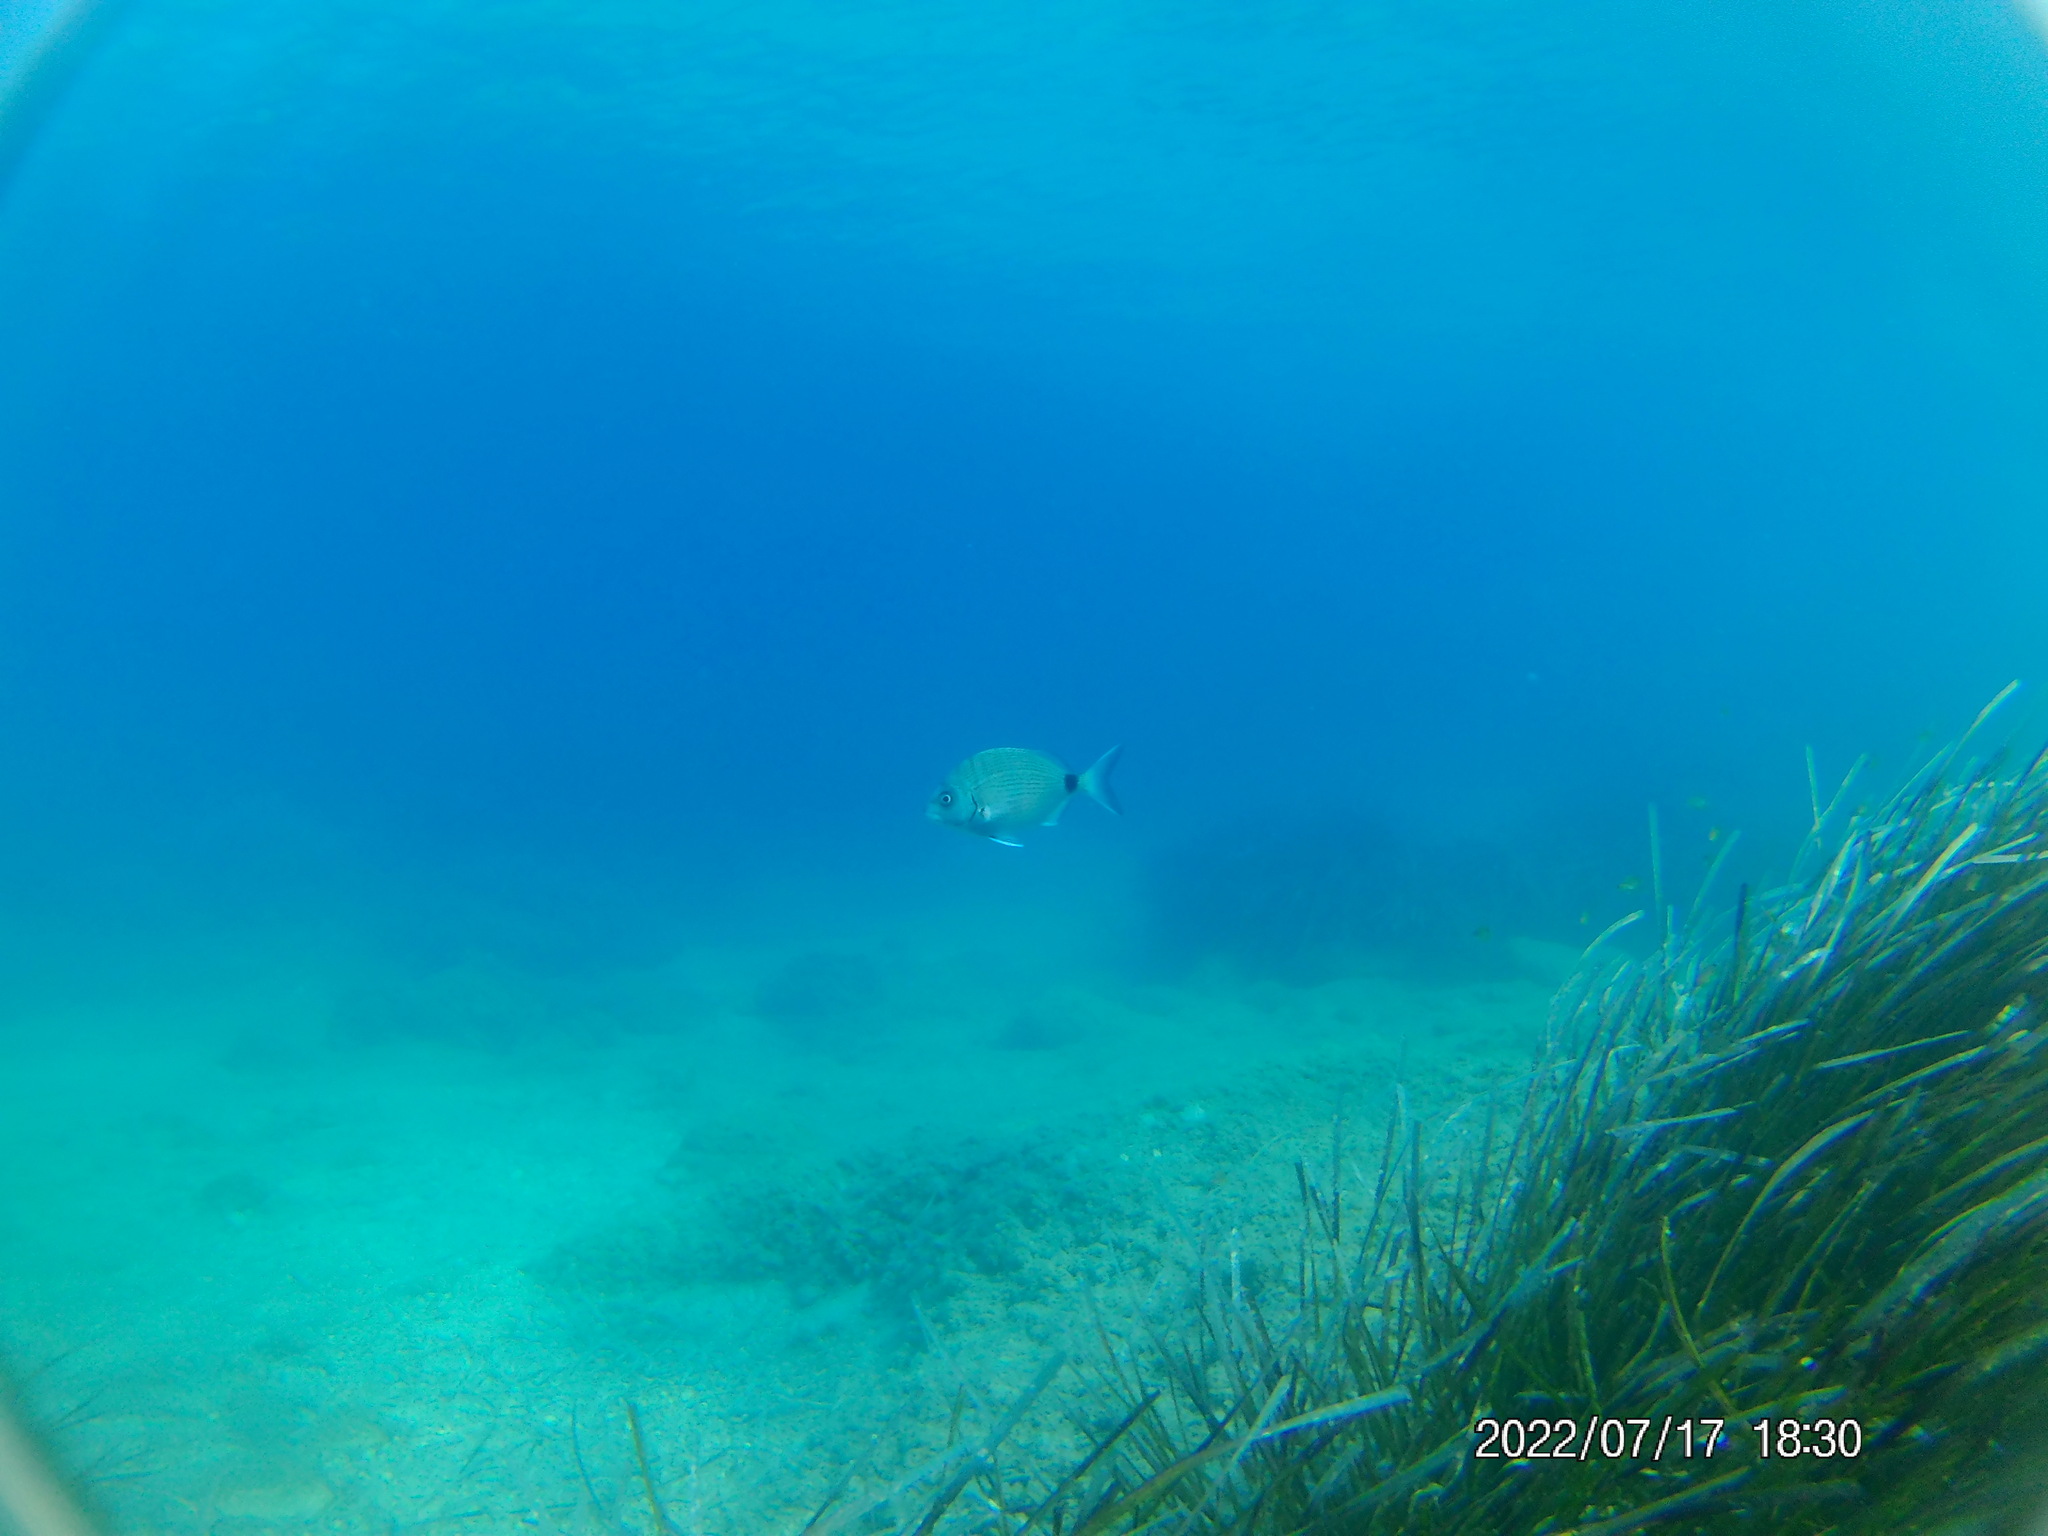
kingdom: Animalia
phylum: Chordata
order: Perciformes
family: Sparidae
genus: Diplodus
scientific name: Diplodus sargus
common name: White seabream
